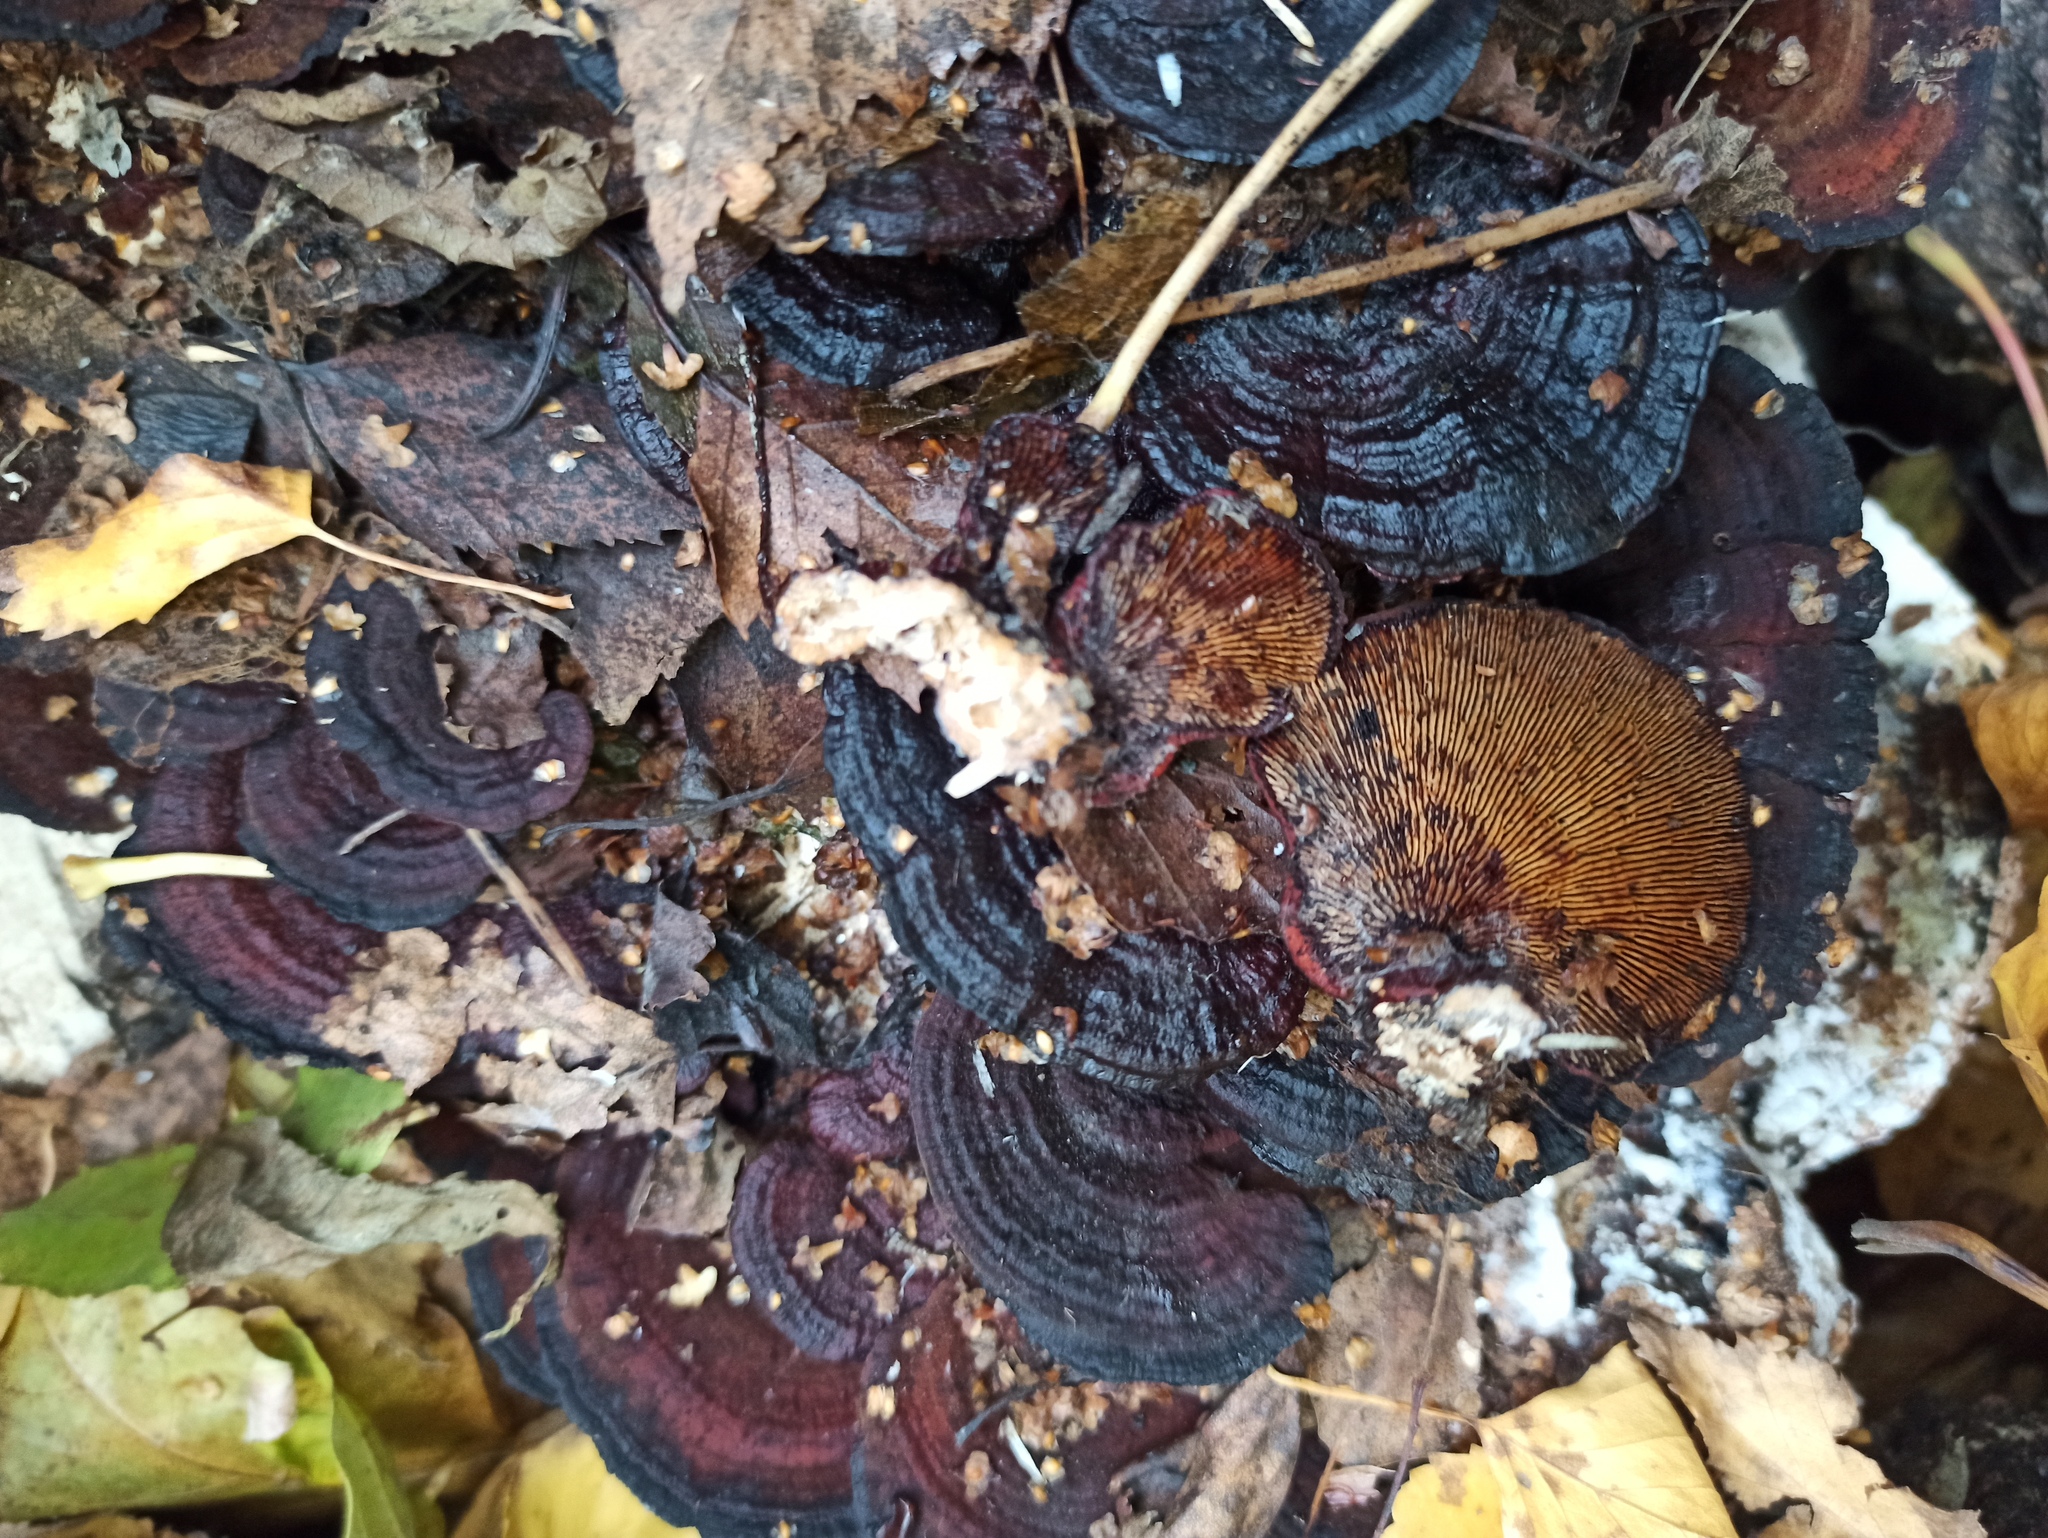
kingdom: Fungi
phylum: Basidiomycota
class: Agaricomycetes
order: Polyporales
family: Polyporaceae
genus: Daedaleopsis
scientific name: Daedaleopsis tricolor
